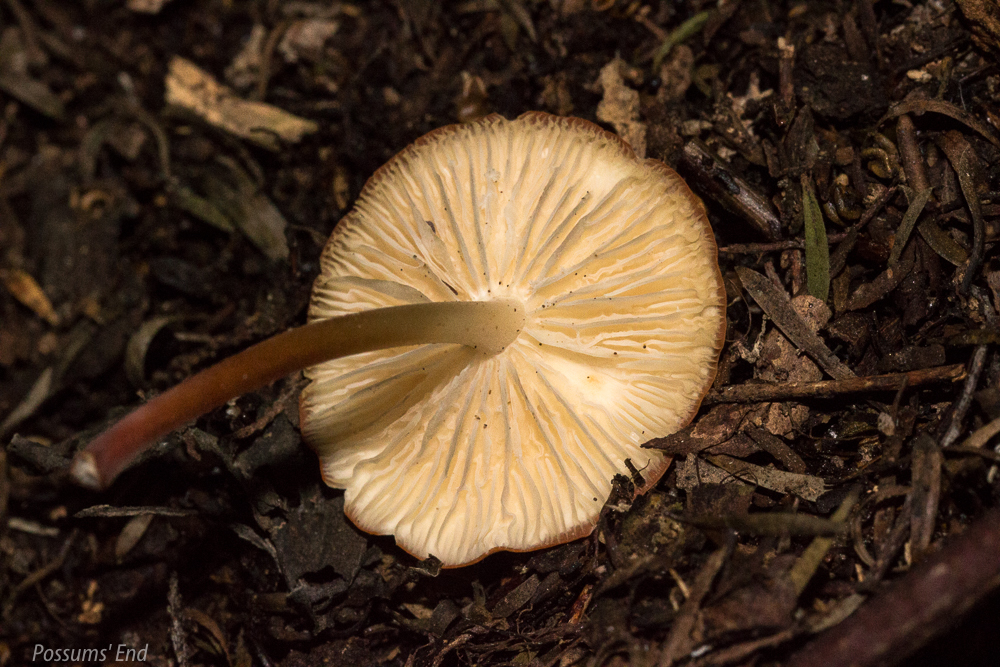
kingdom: Fungi
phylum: Basidiomycota
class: Agaricomycetes
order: Agaricales
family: Marasmiaceae
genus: Marasmius
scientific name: Marasmius elegans
